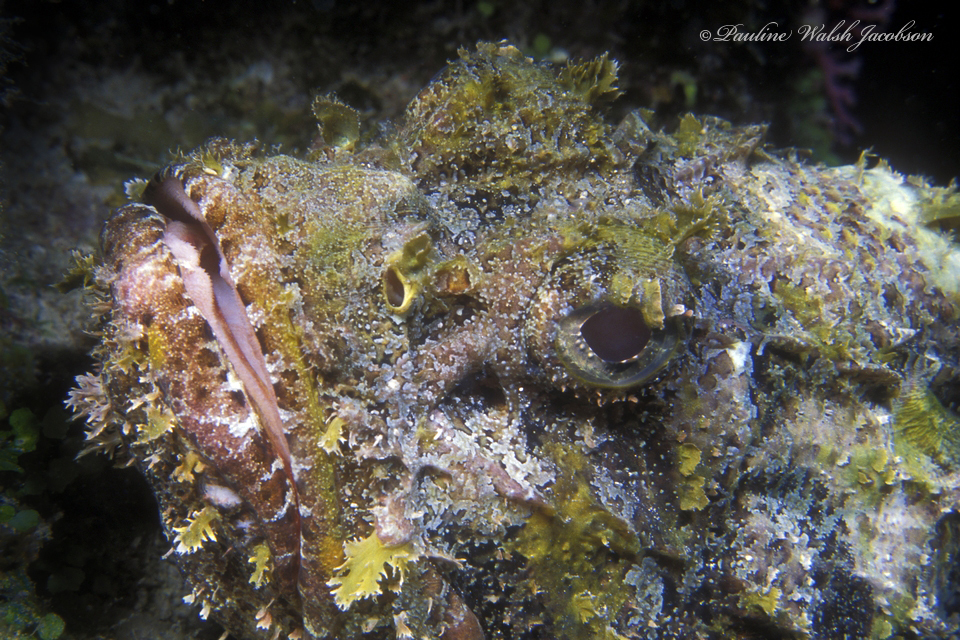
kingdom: Animalia
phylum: Chordata
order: Scorpaeniformes
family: Scorpaenidae
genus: Scorpaena
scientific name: Scorpaena plumieri
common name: Spotted scorpionfish
